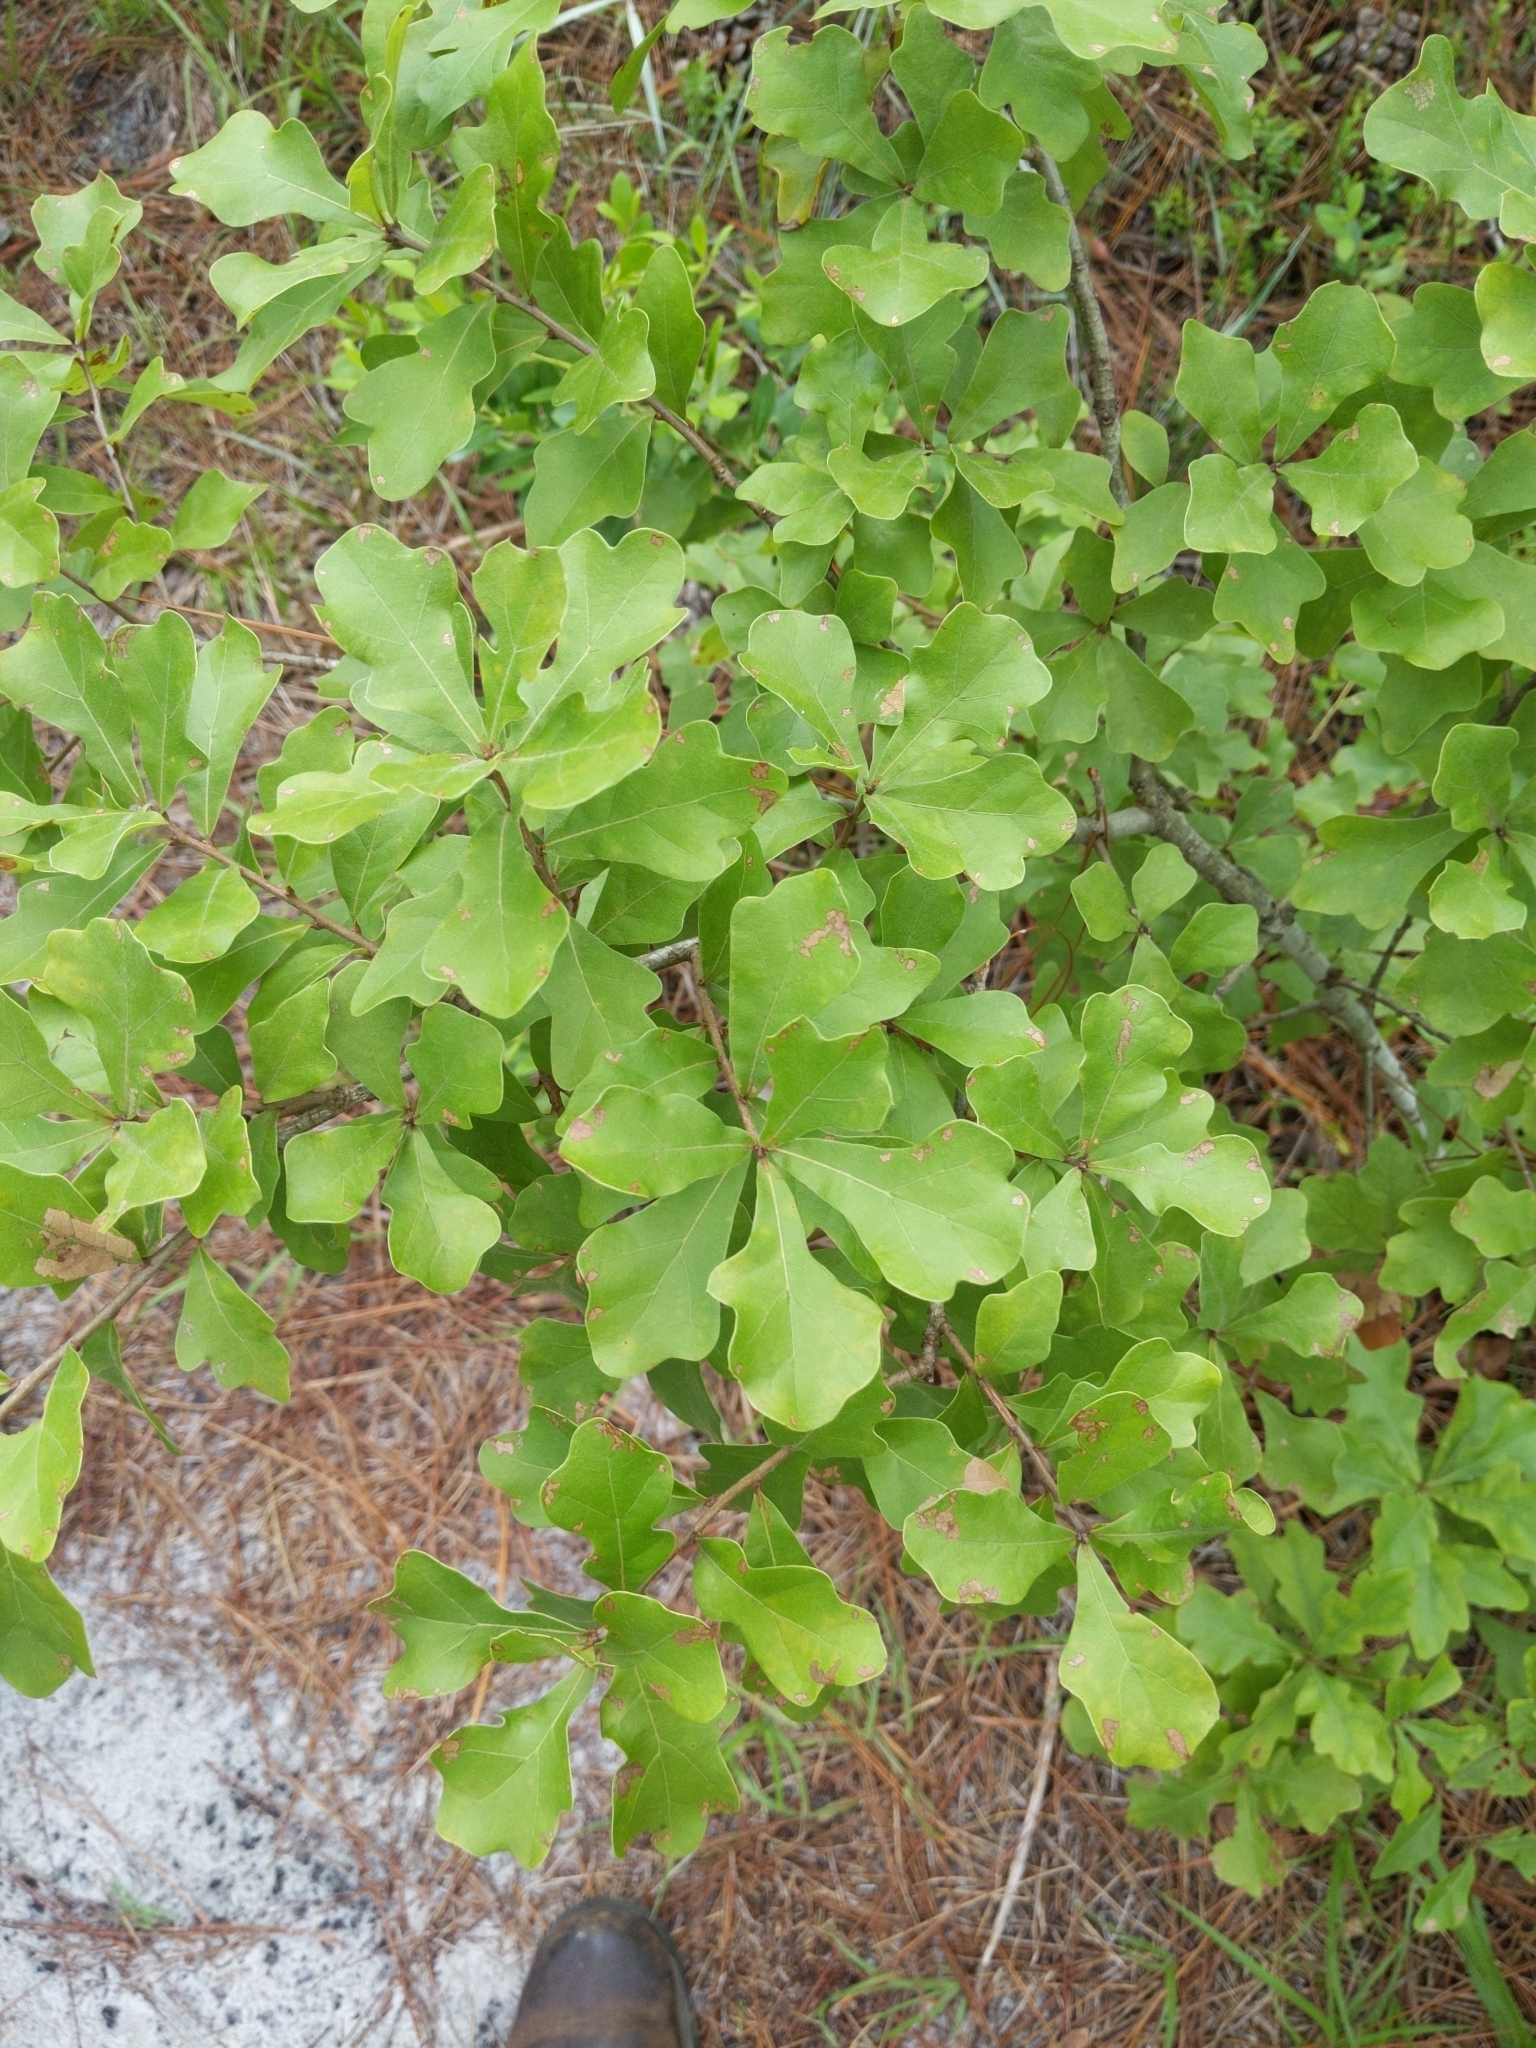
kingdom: Plantae
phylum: Tracheophyta
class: Magnoliopsida
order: Fagales
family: Fagaceae
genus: Quercus
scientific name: Quercus nigra
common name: Water oak
